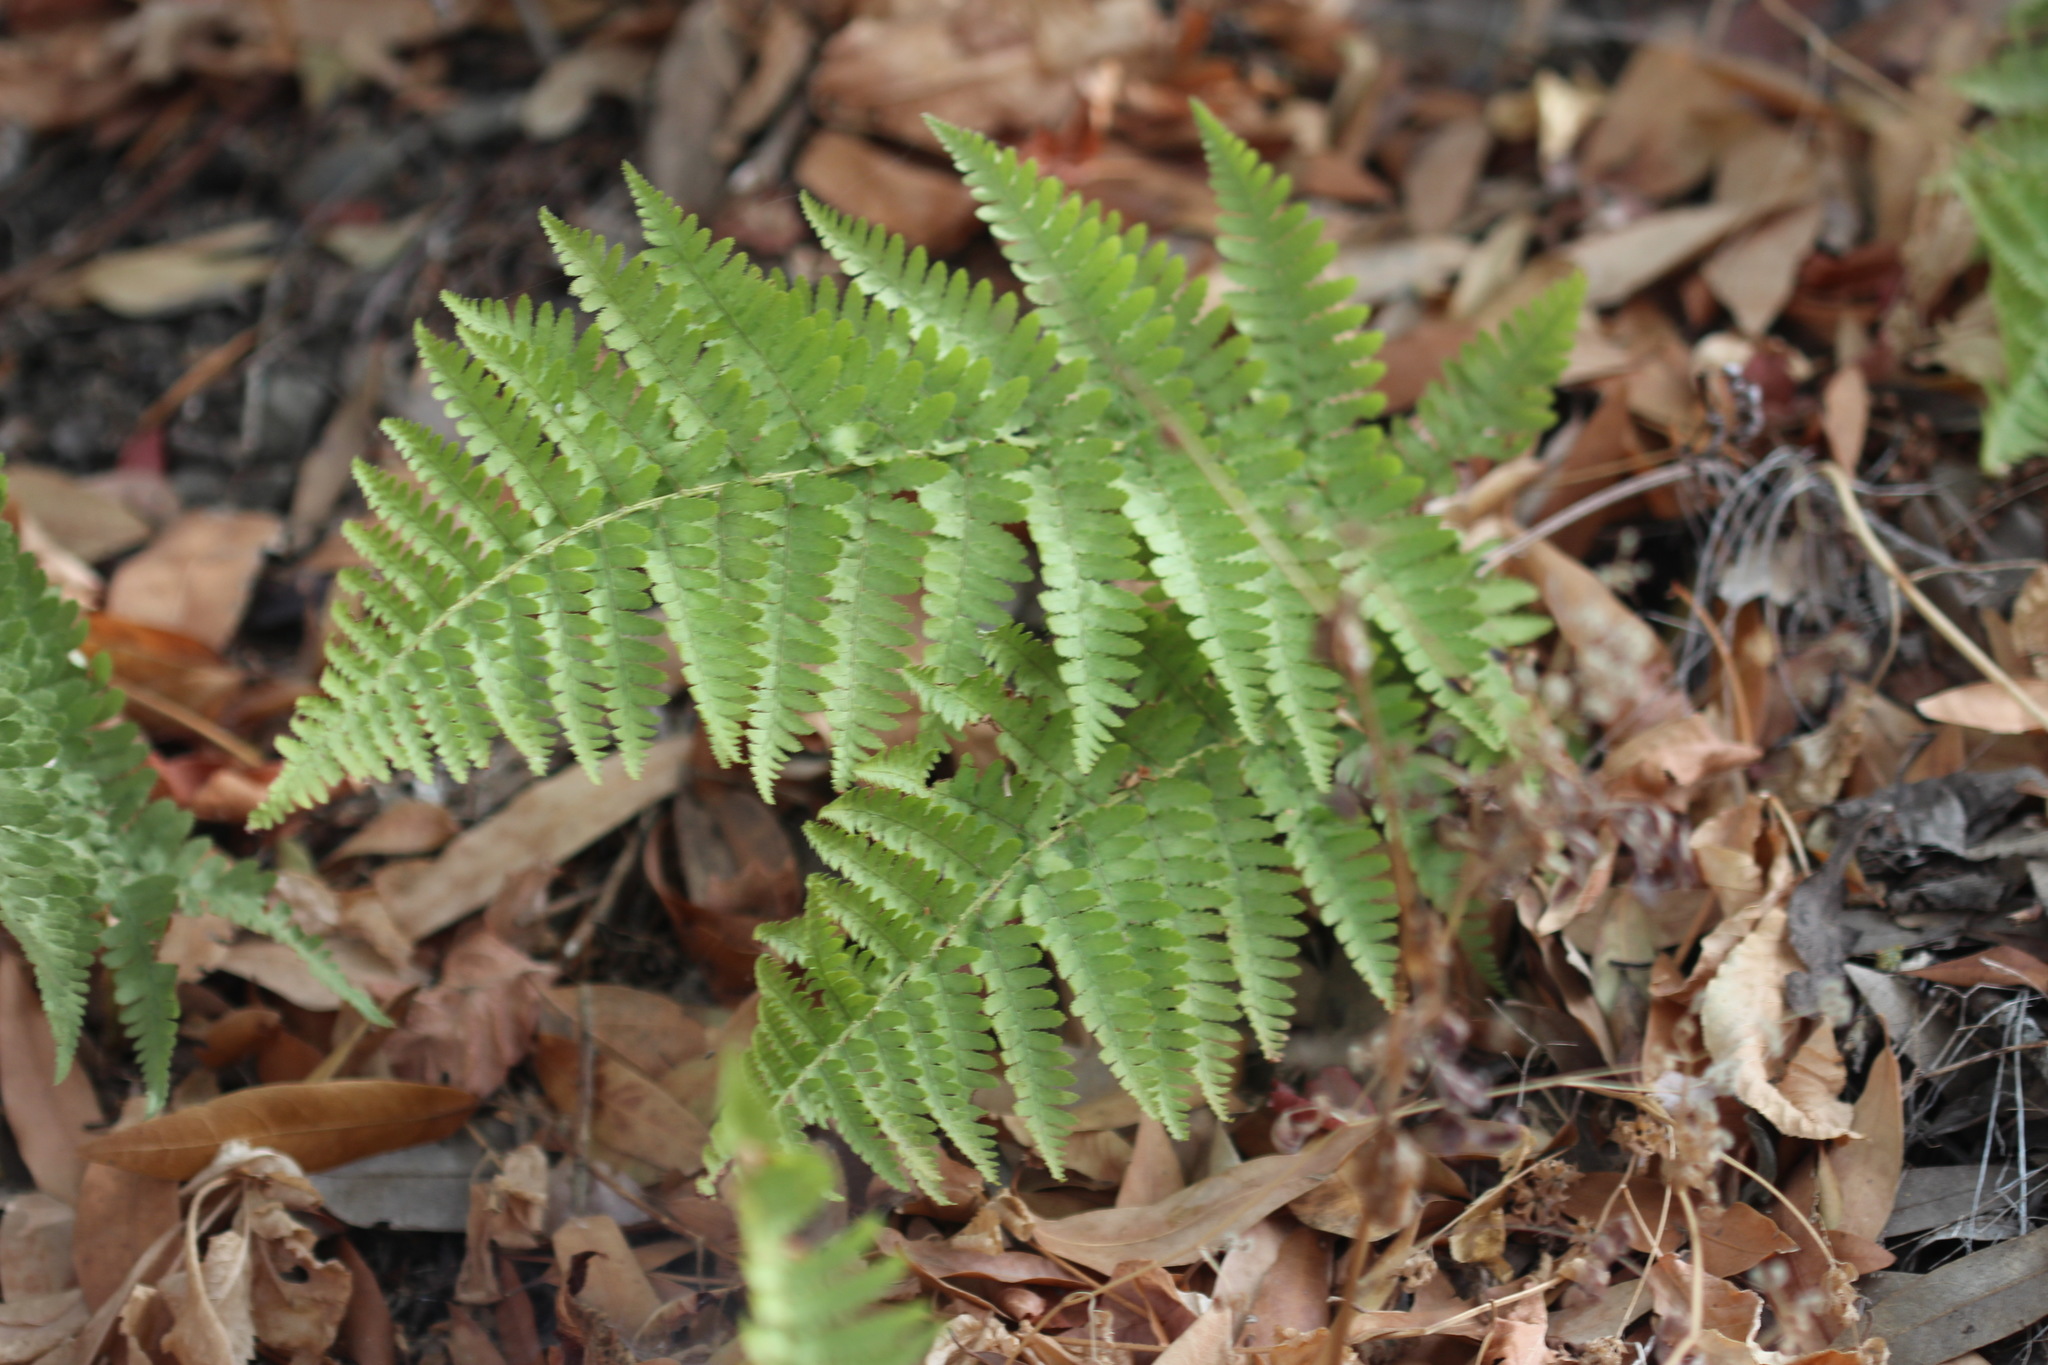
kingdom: Plantae
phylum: Tracheophyta
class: Polypodiopsida
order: Polypodiales
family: Dryopteridaceae
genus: Dryopteris
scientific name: Dryopteris arguta
